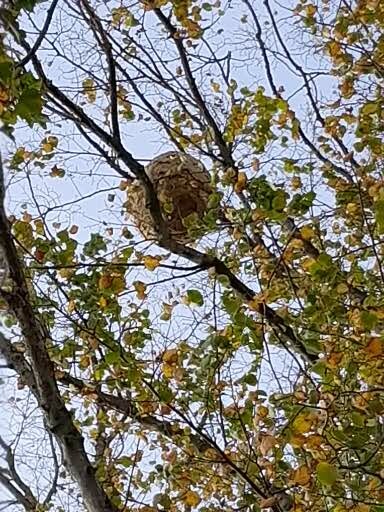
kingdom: Animalia
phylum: Arthropoda
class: Insecta
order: Hymenoptera
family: Vespidae
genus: Vespa
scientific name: Vespa velutina
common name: Asian hornet
